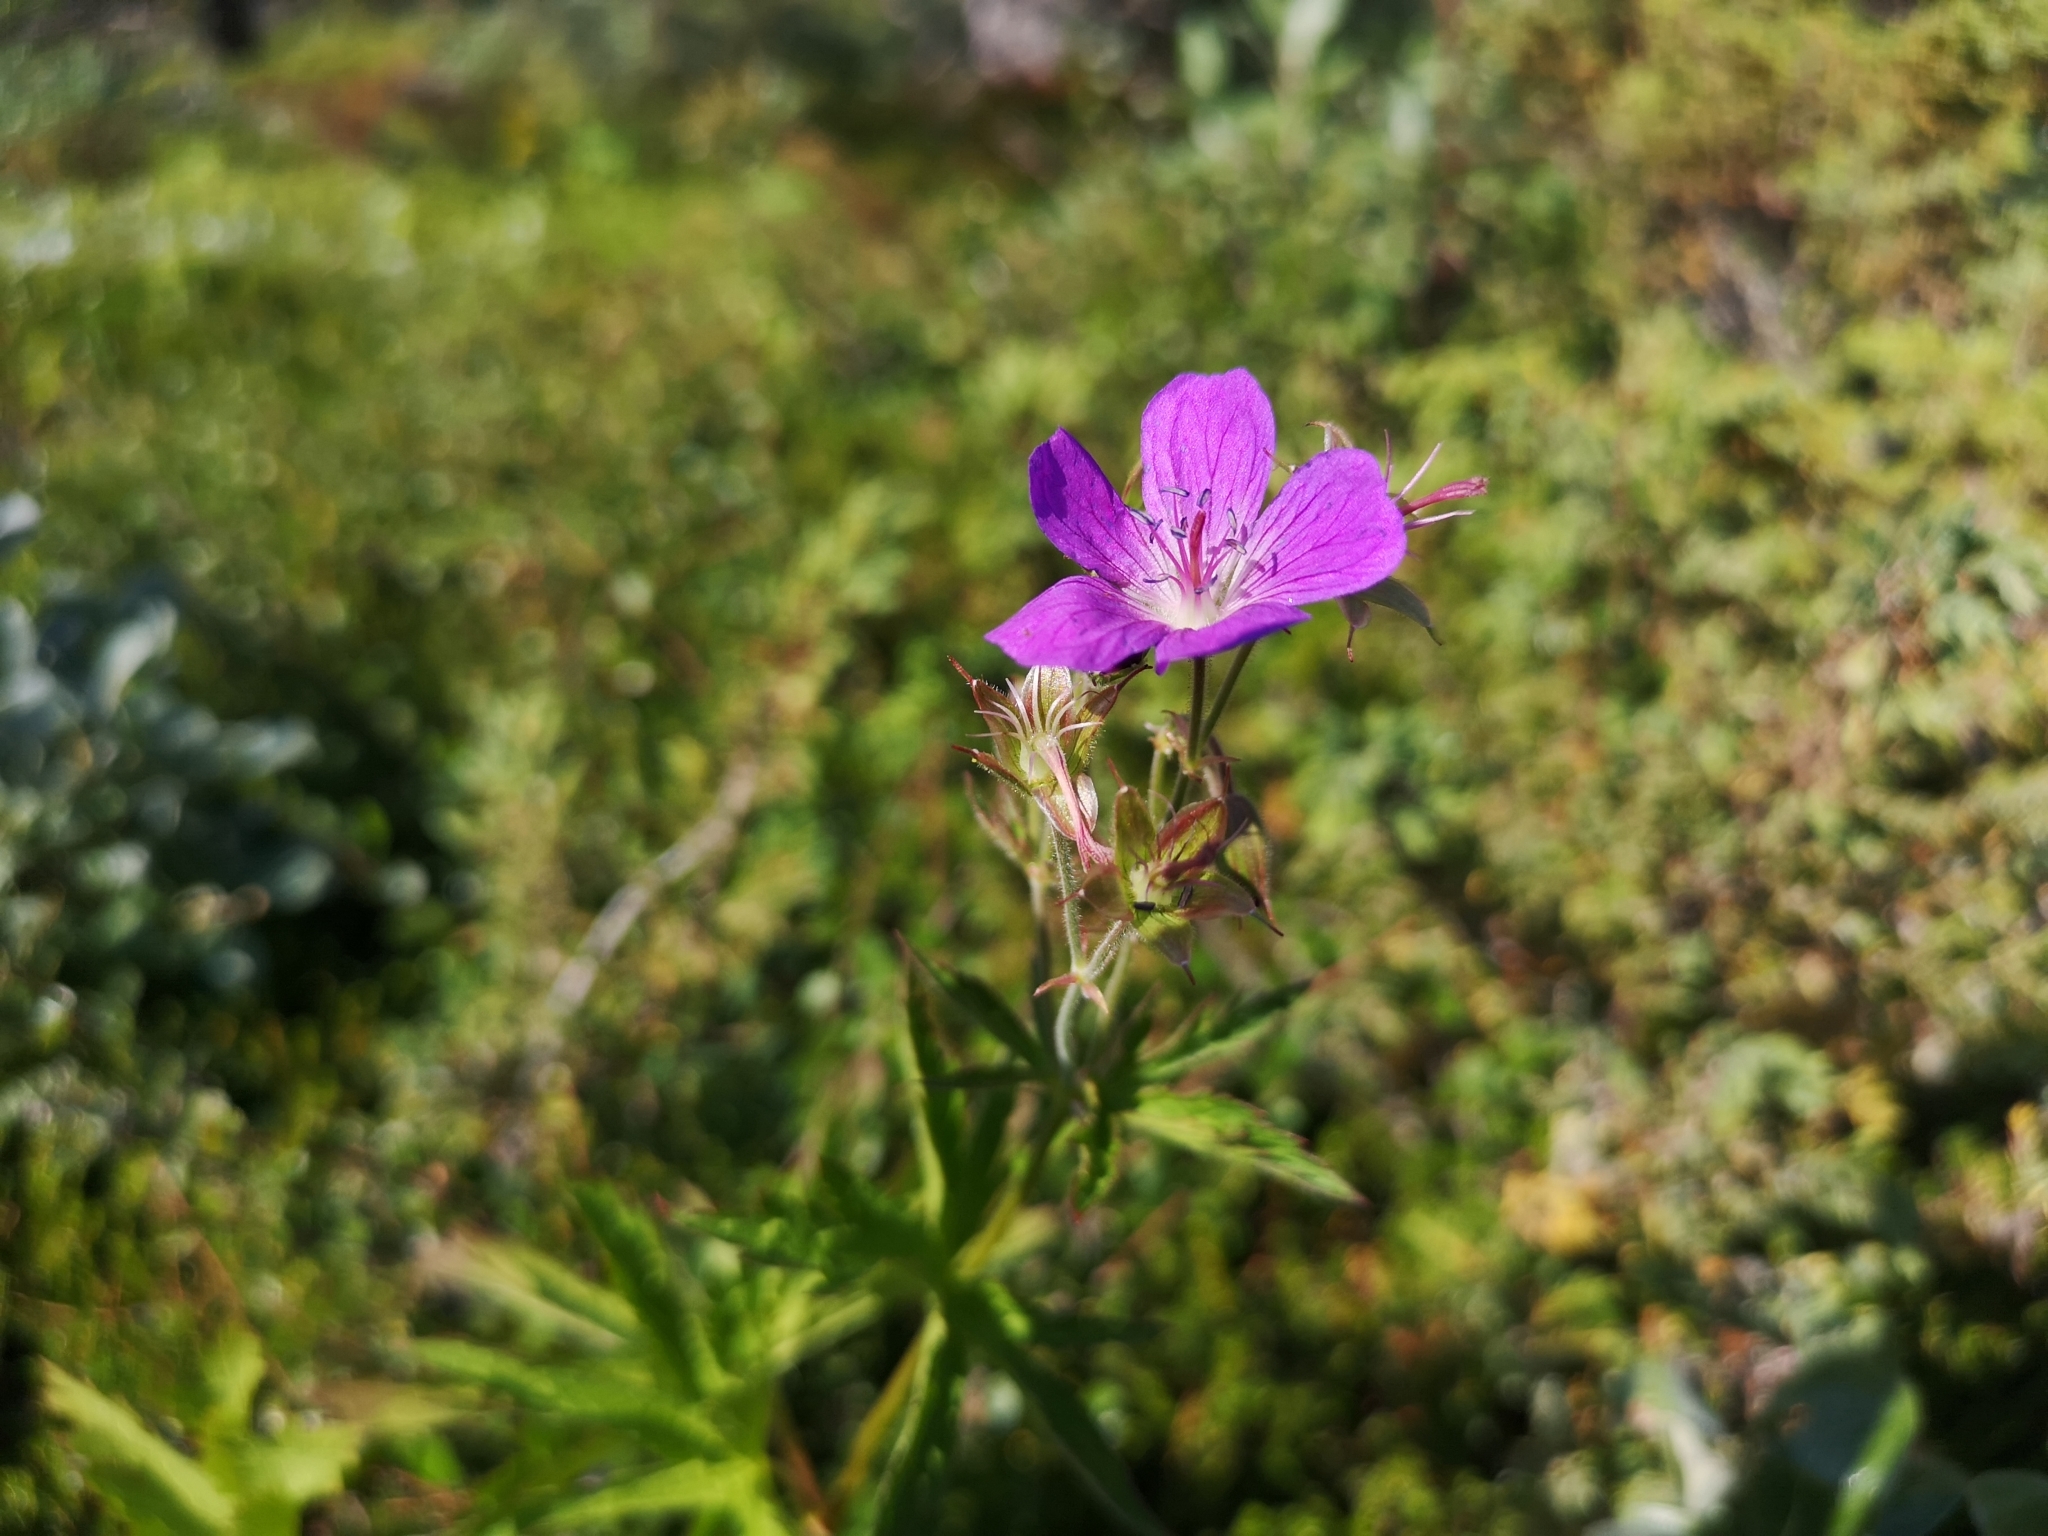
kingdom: Plantae
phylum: Tracheophyta
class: Magnoliopsida
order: Geraniales
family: Geraniaceae
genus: Geranium
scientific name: Geranium sylvaticum
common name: Wood crane's-bill
